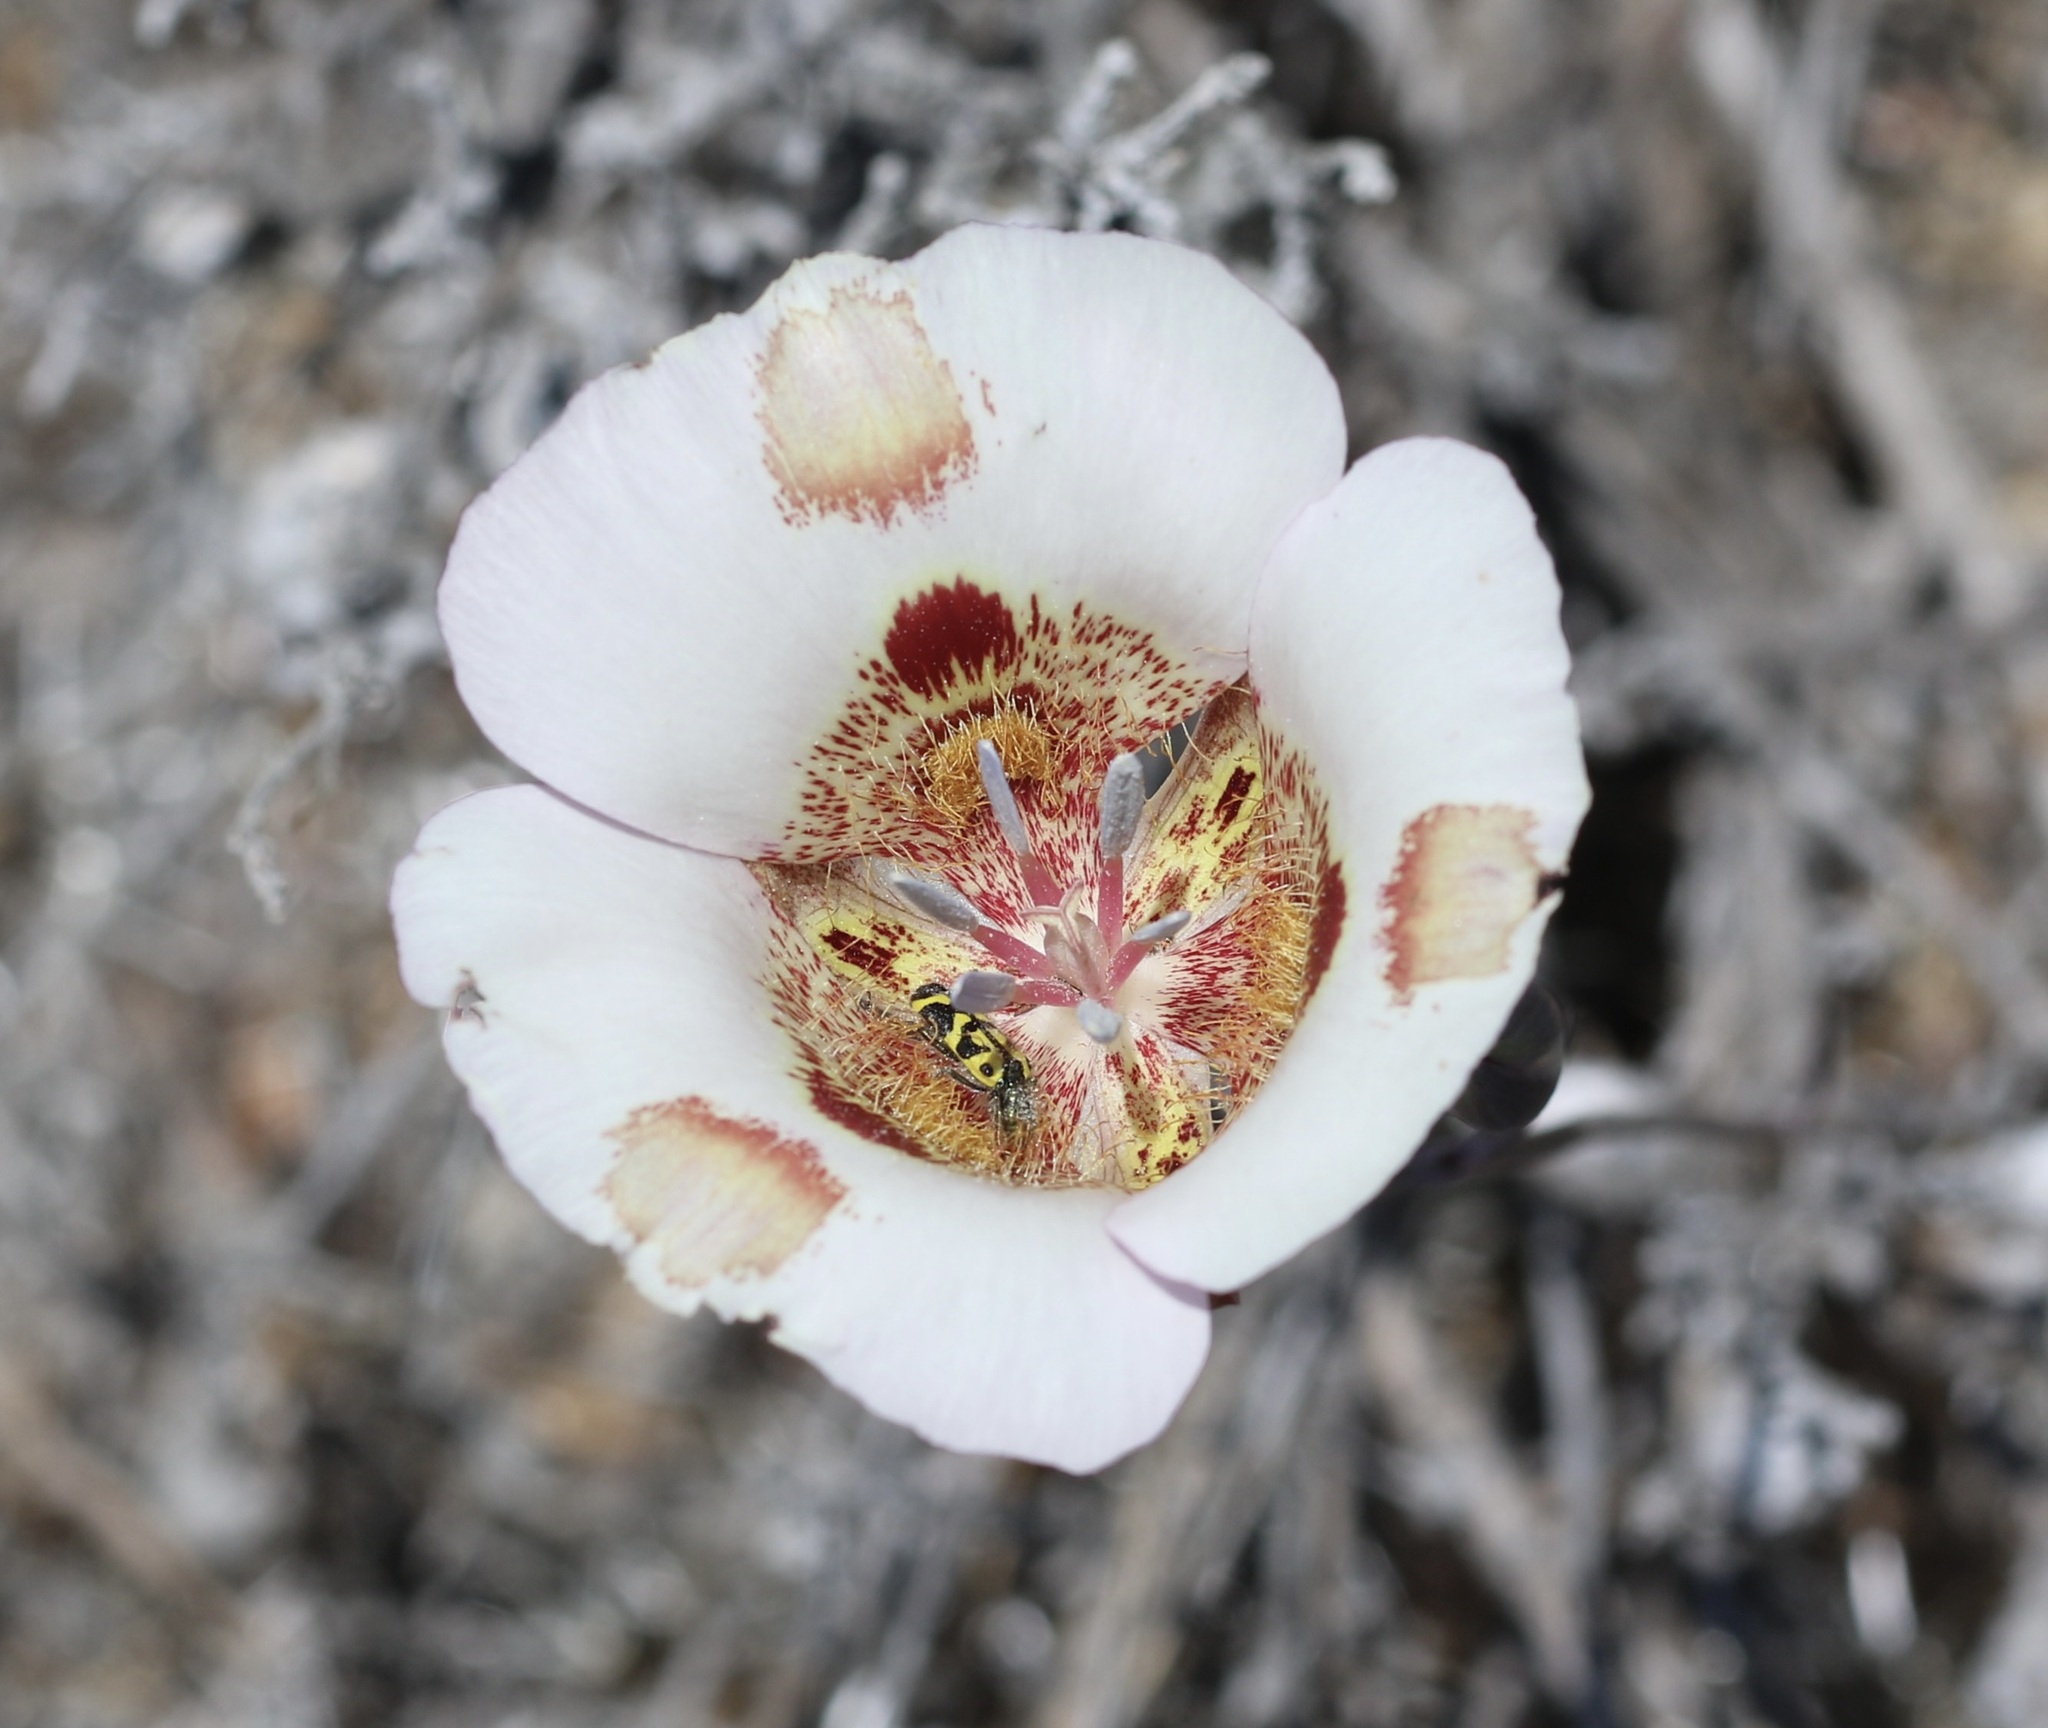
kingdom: Plantae
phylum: Tracheophyta
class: Liliopsida
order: Liliales
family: Liliaceae
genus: Calochortus
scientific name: Calochortus venustus
